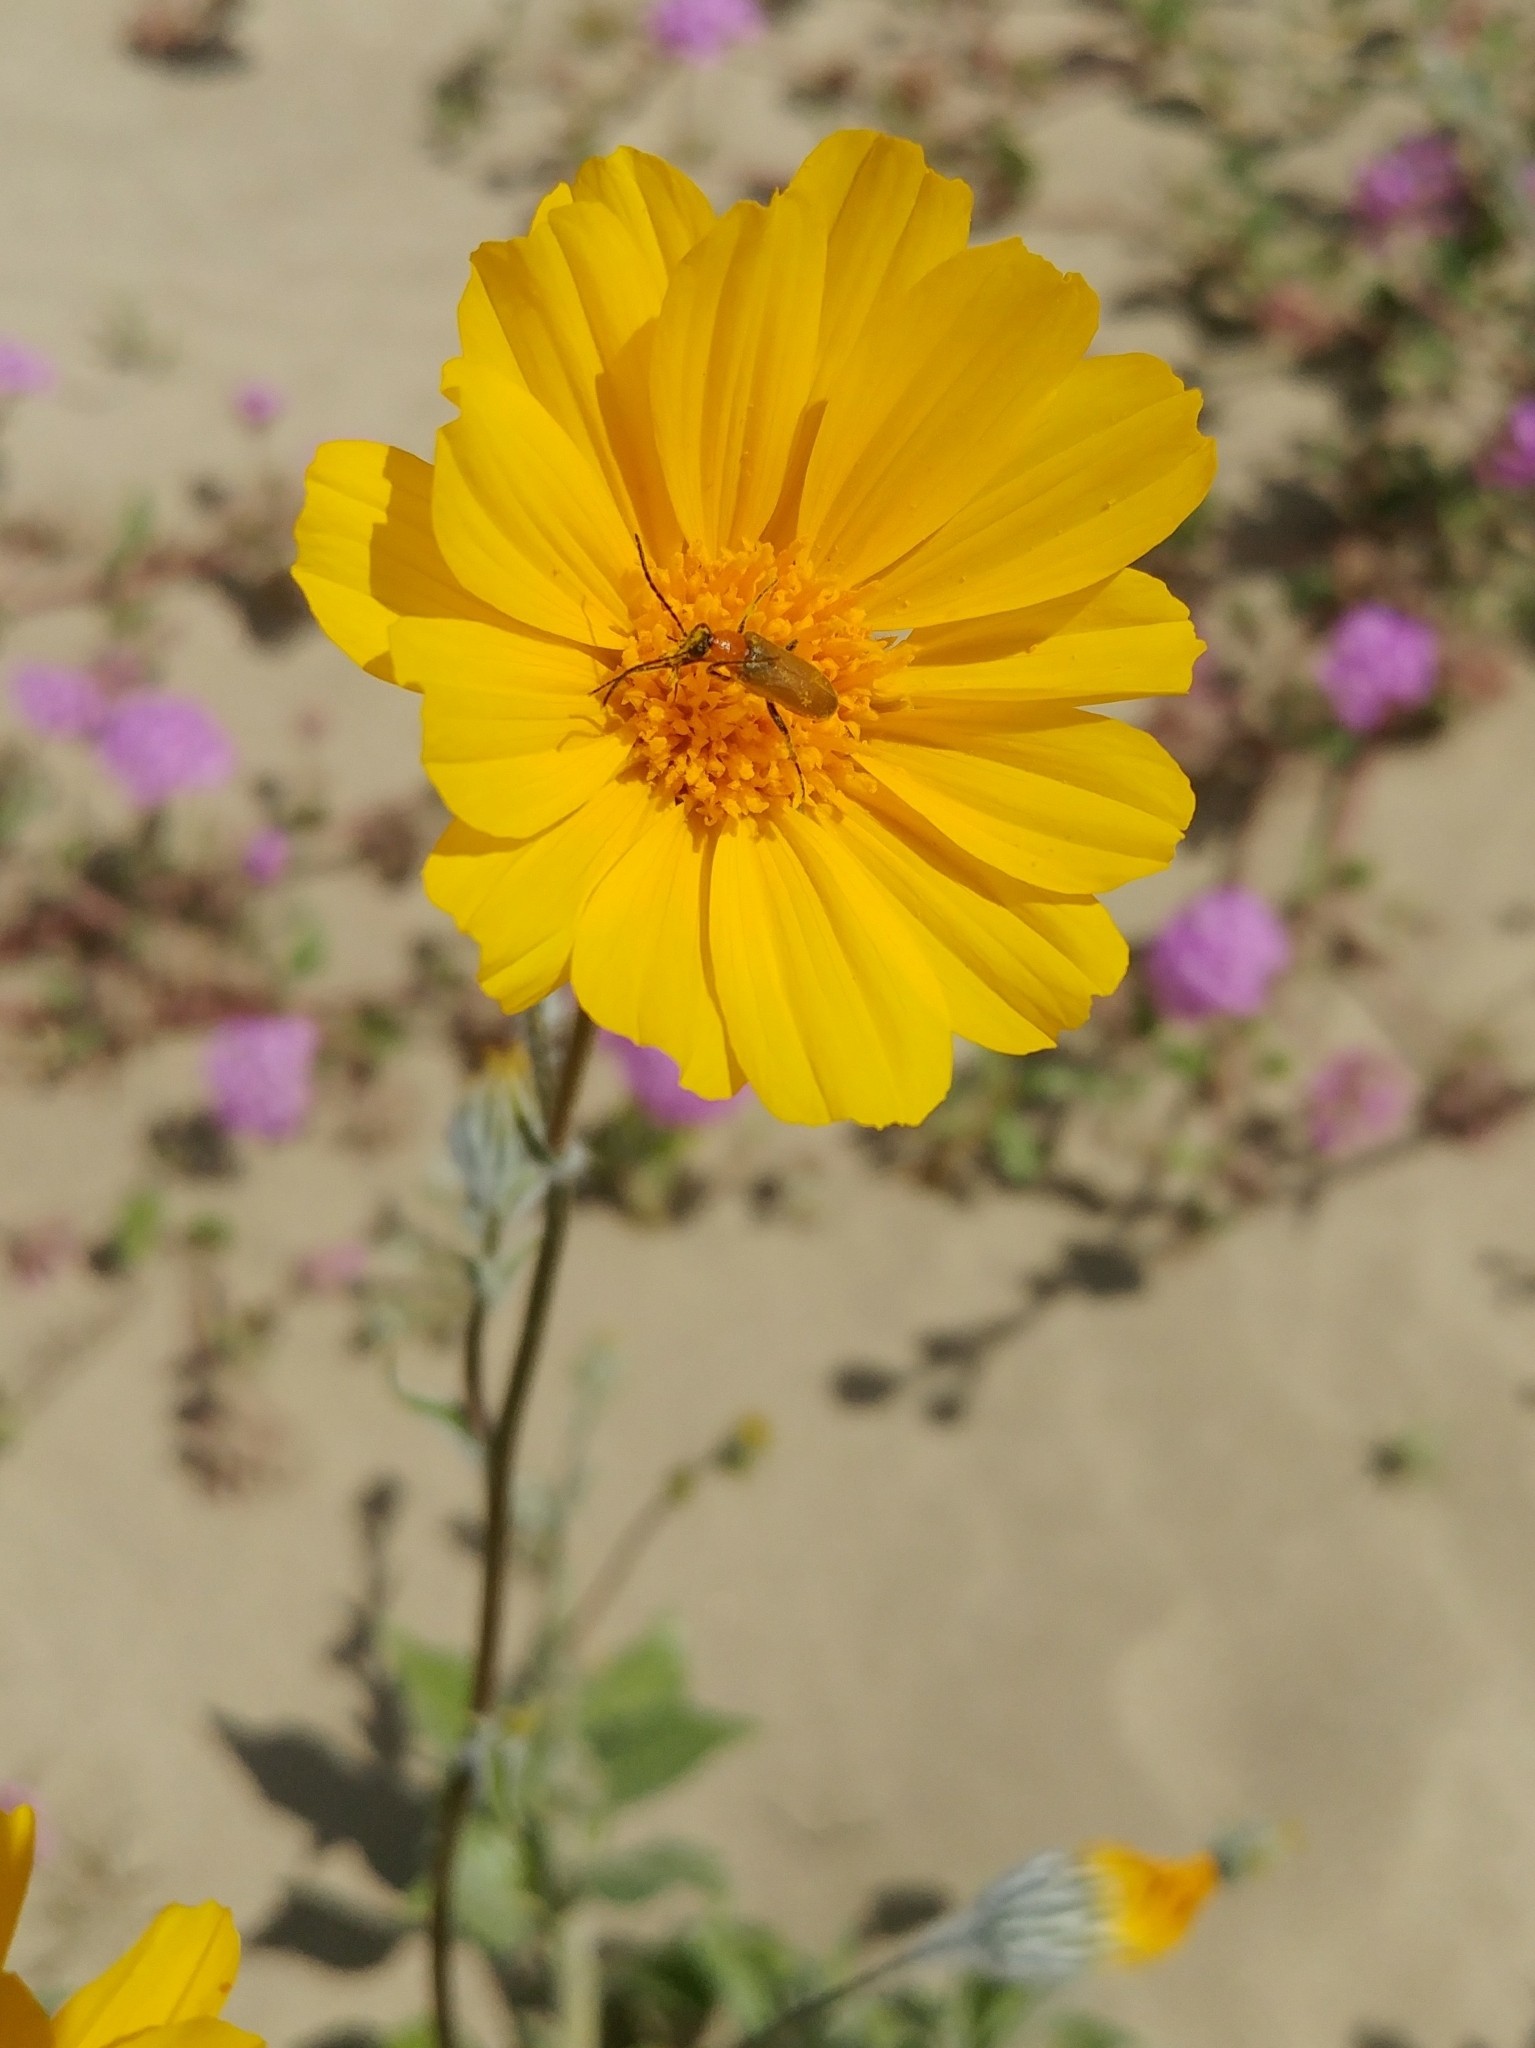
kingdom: Plantae
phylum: Tracheophyta
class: Magnoliopsida
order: Asterales
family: Asteraceae
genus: Geraea
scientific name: Geraea canescens
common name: Desert-gold
